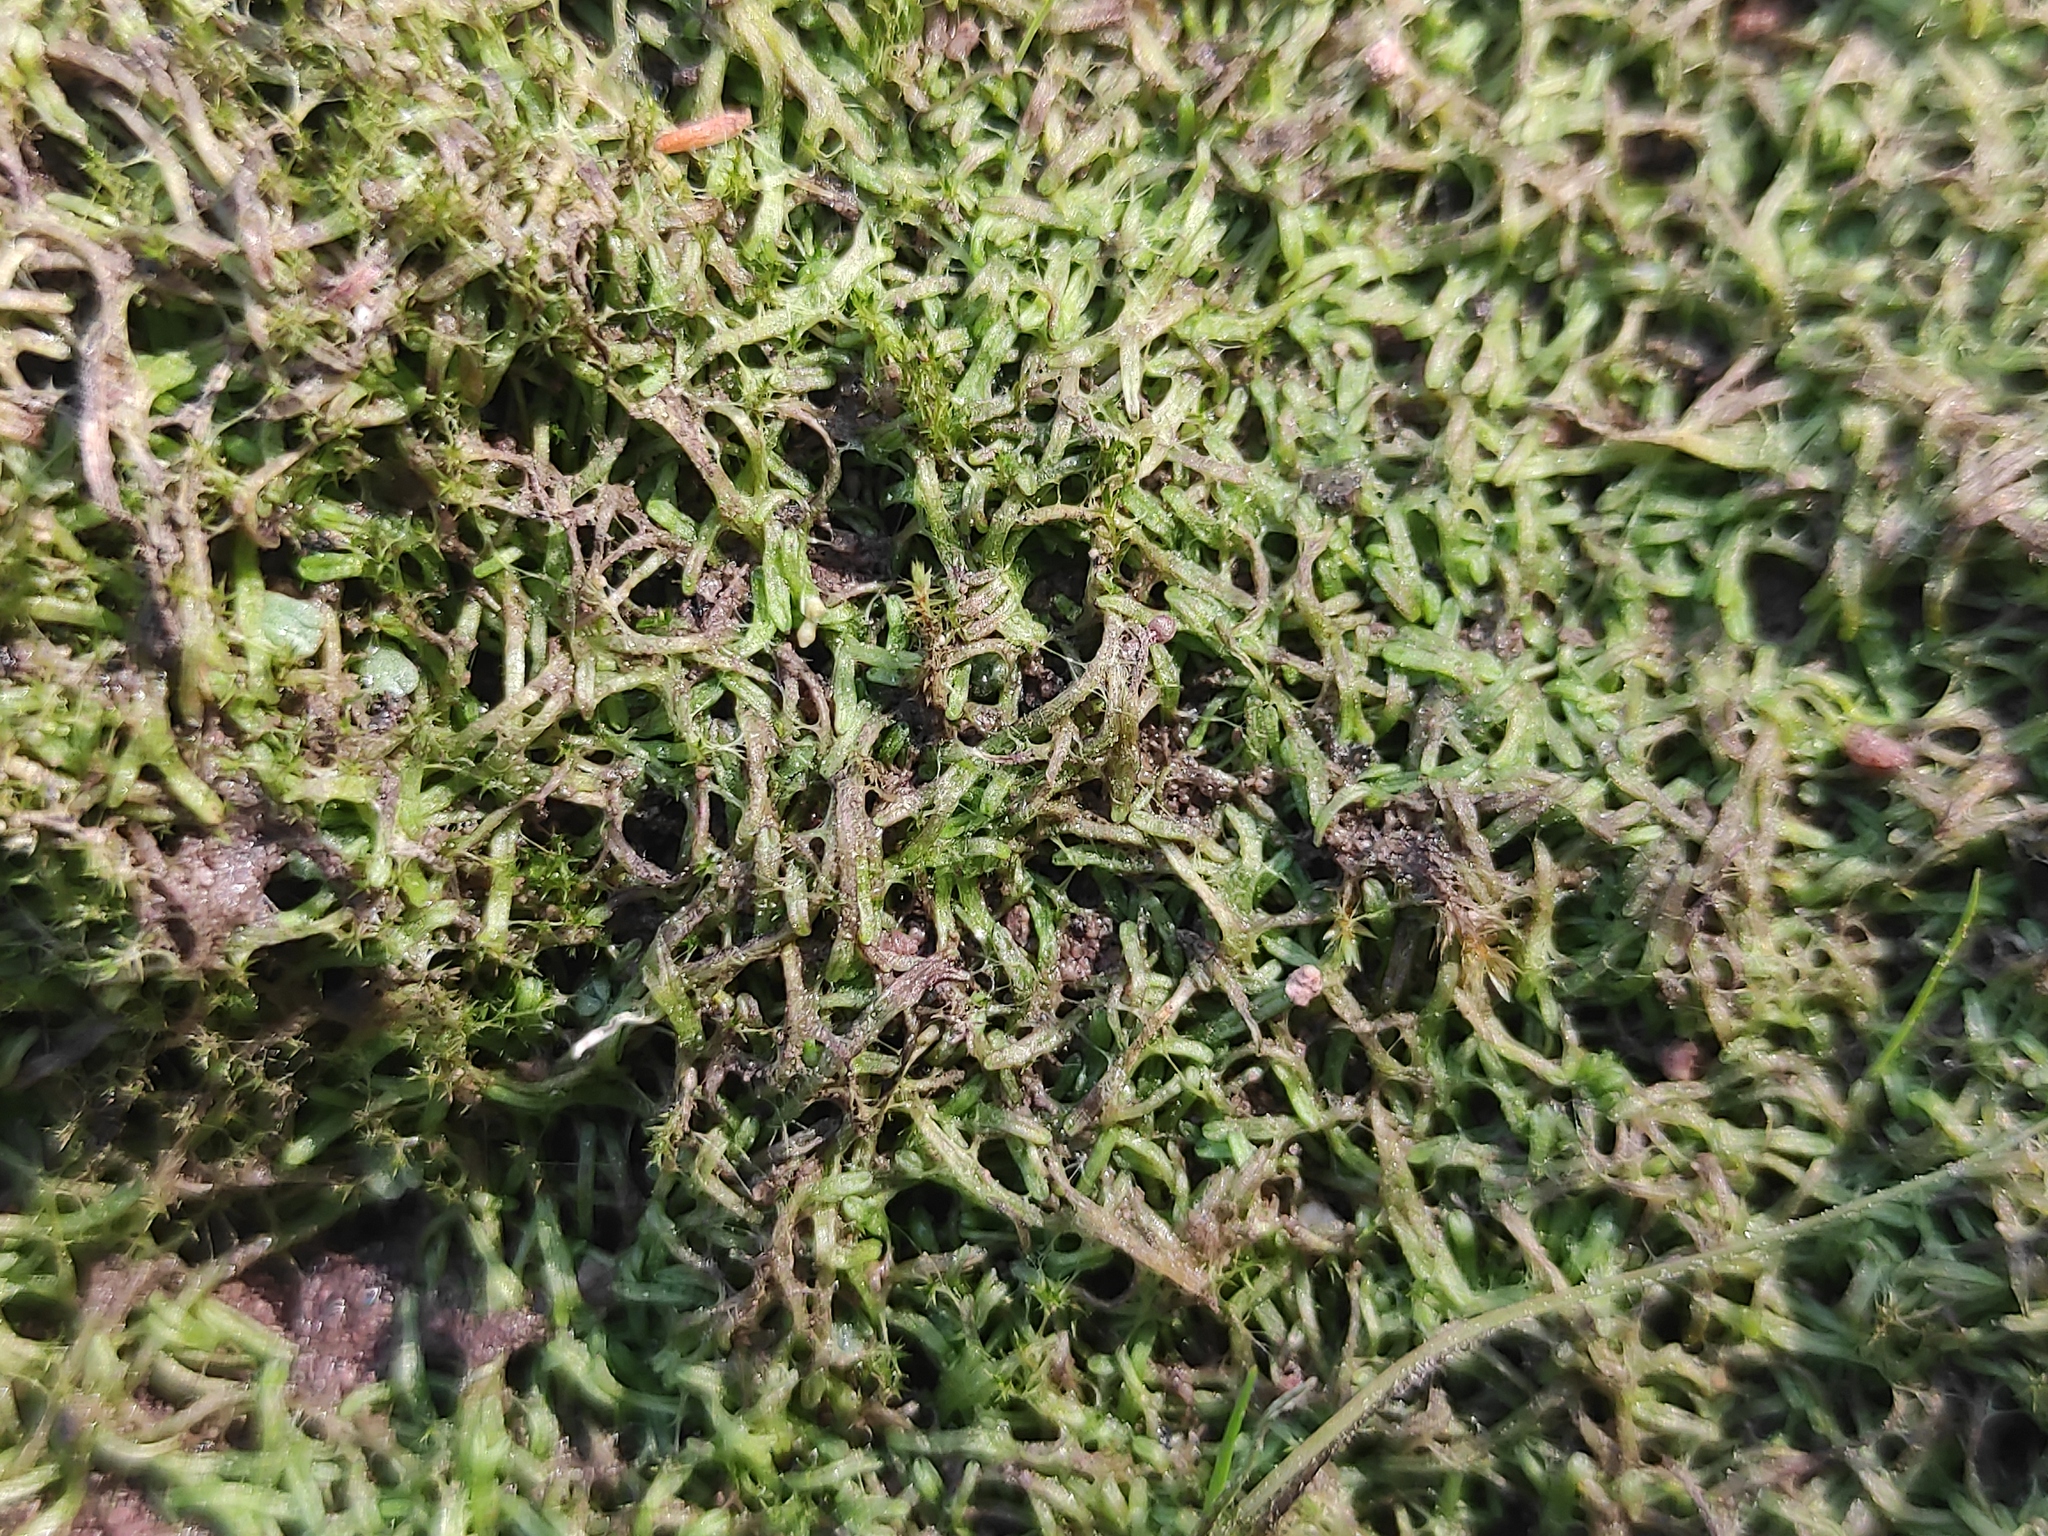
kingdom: Plantae
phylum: Marchantiophyta
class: Marchantiopsida
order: Marchantiales
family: Ricciaceae
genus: Riccia
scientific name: Riccia canaliculata
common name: Channelled crystalwort
